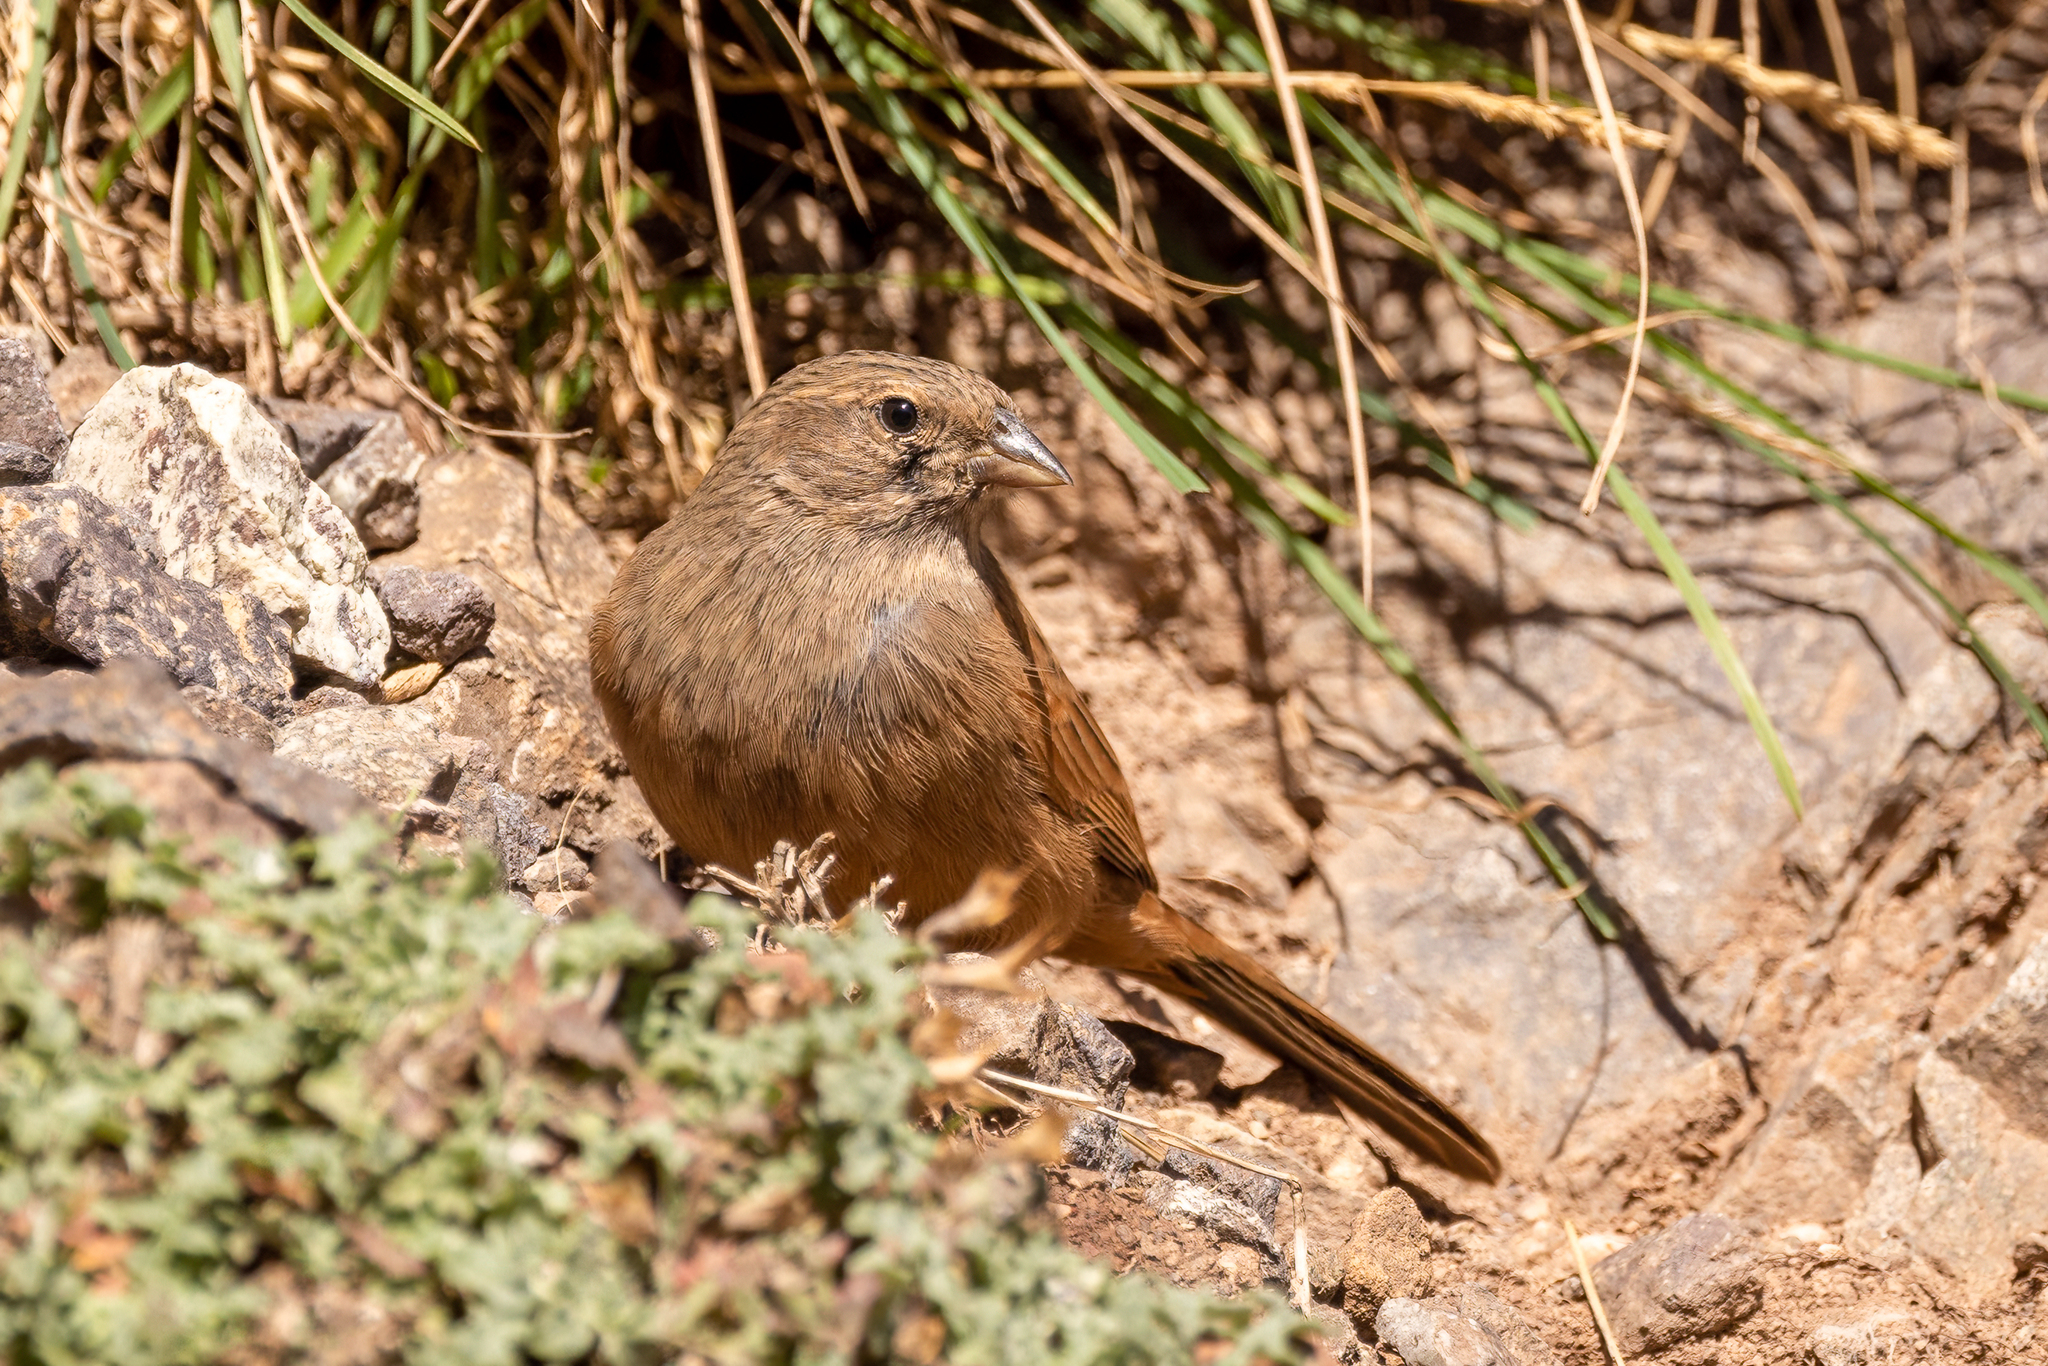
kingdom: Animalia
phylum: Chordata
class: Aves
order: Passeriformes
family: Emberizidae
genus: Emberiza
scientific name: Emberiza sahari
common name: House bunting
